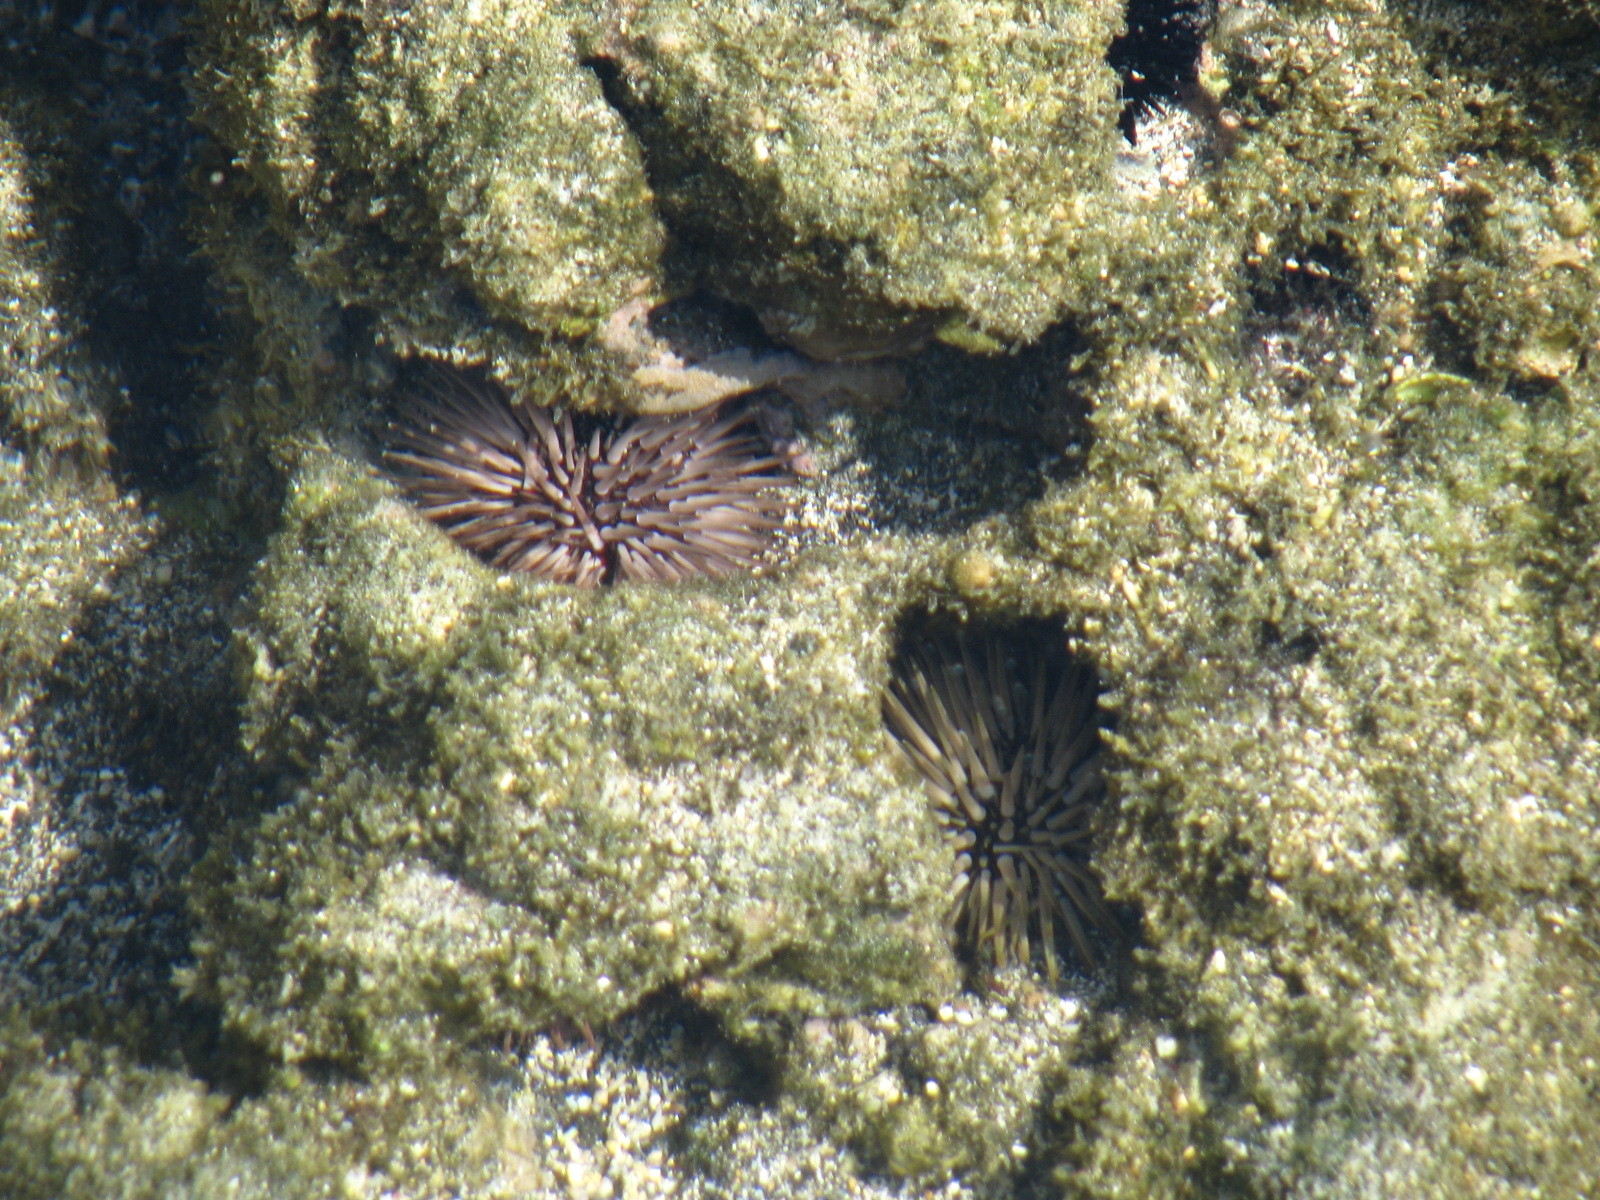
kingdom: Animalia
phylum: Echinodermata
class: Echinoidea
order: Camarodonta
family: Echinometridae
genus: Echinometra
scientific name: Echinometra mathaei
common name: Rock-boring urchin
